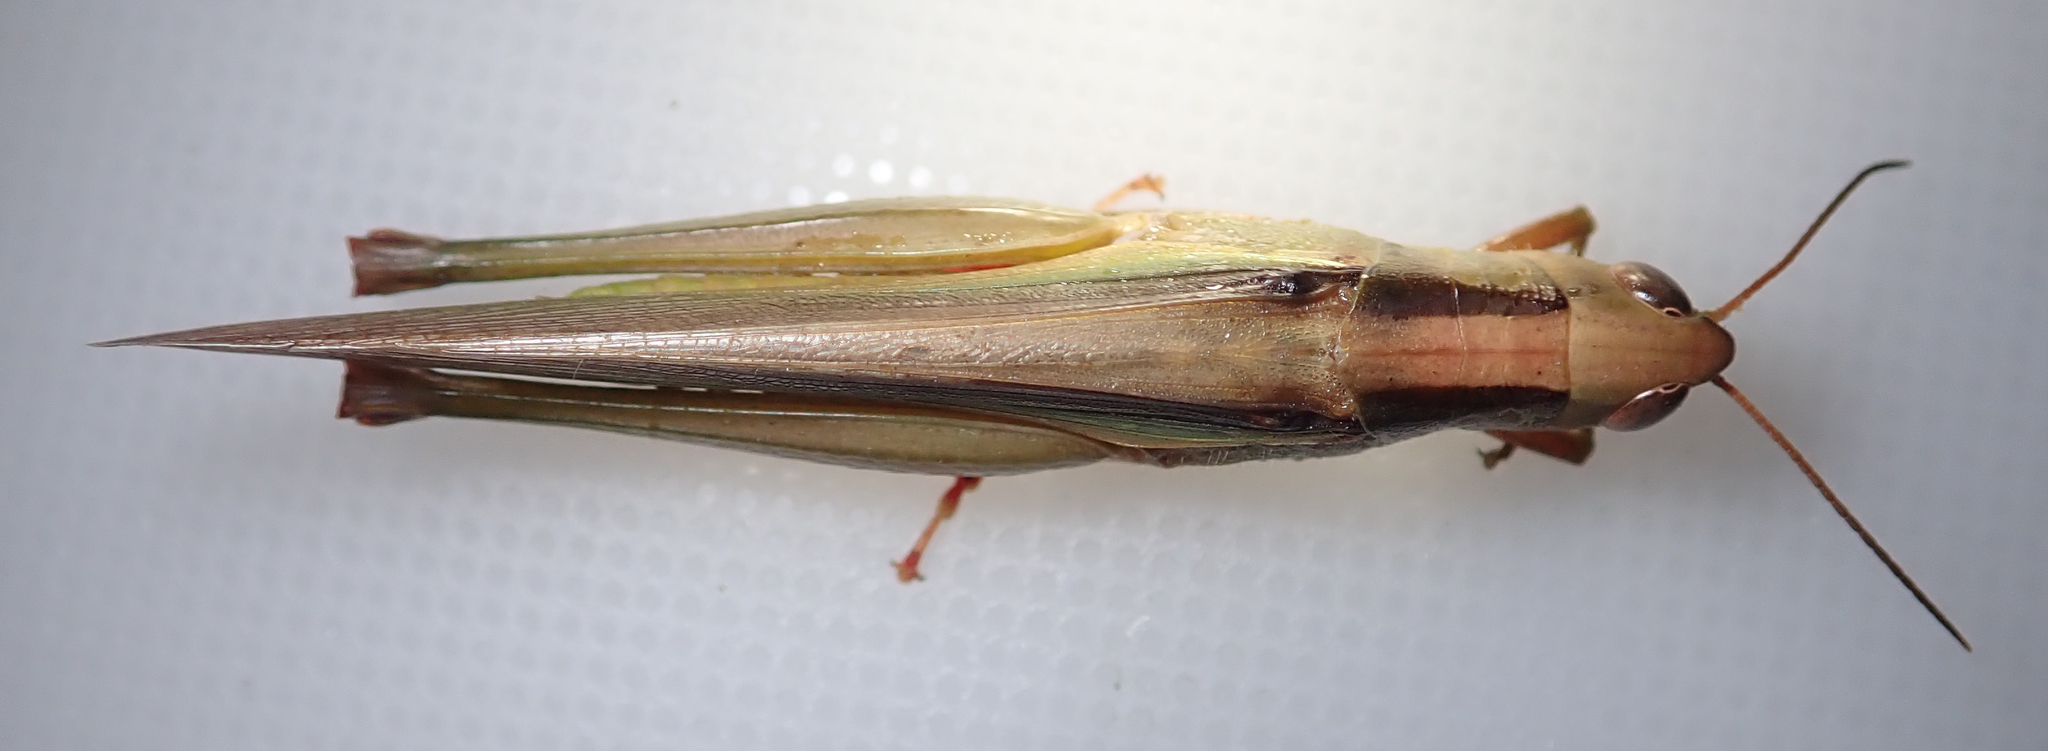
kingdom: Animalia
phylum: Arthropoda
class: Insecta
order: Orthoptera
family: Acrididae
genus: Paracinema
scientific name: Paracinema tricolor
